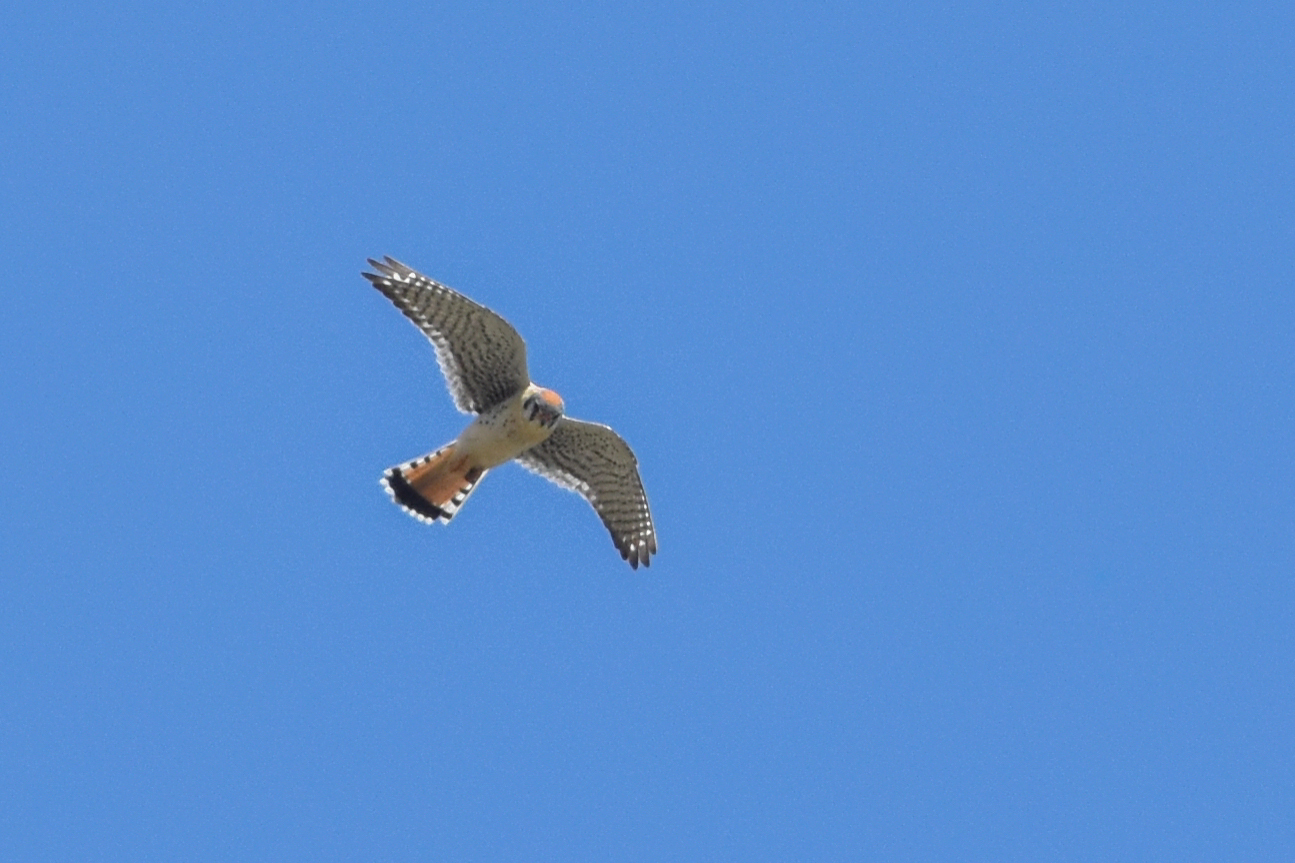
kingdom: Animalia
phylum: Chordata
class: Aves
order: Falconiformes
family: Falconidae
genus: Falco
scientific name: Falco sparverius
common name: American kestrel
